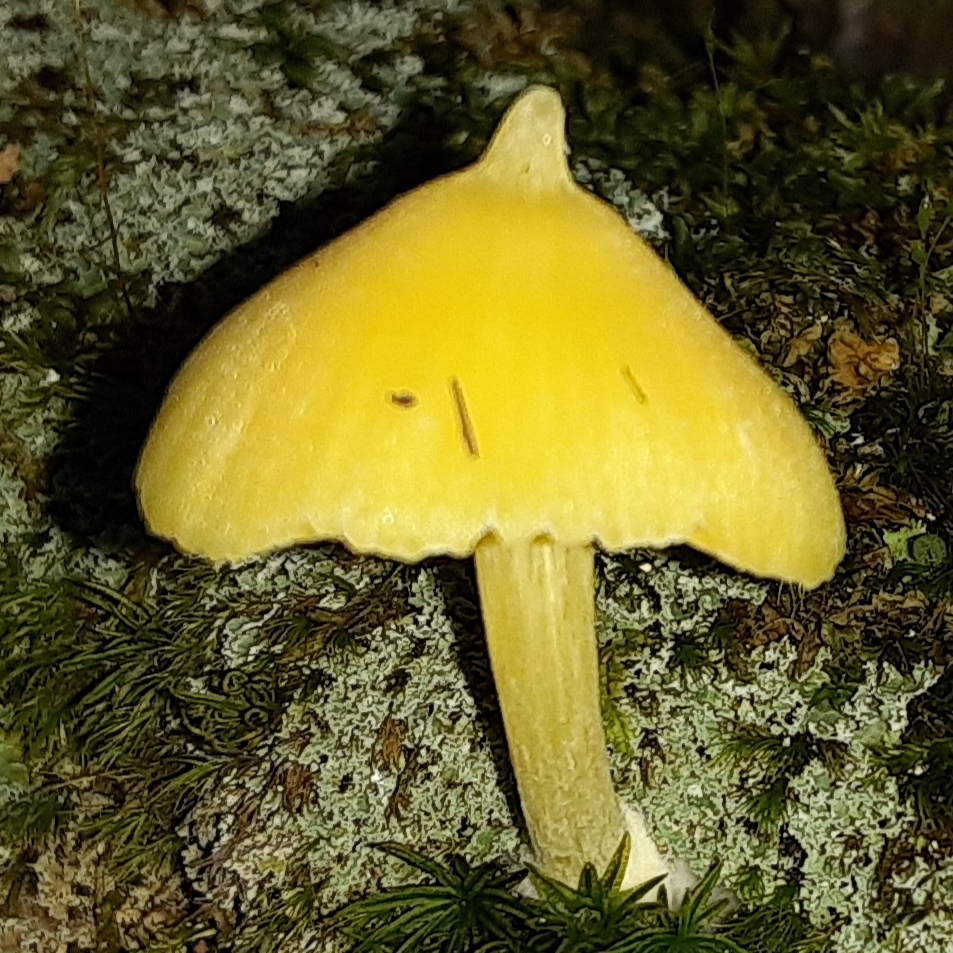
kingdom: Fungi
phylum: Basidiomycota
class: Agaricomycetes
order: Agaricales
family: Entolomataceae
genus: Entoloma
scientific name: Entoloma murrayi
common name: Yellow unicorn entoloma
